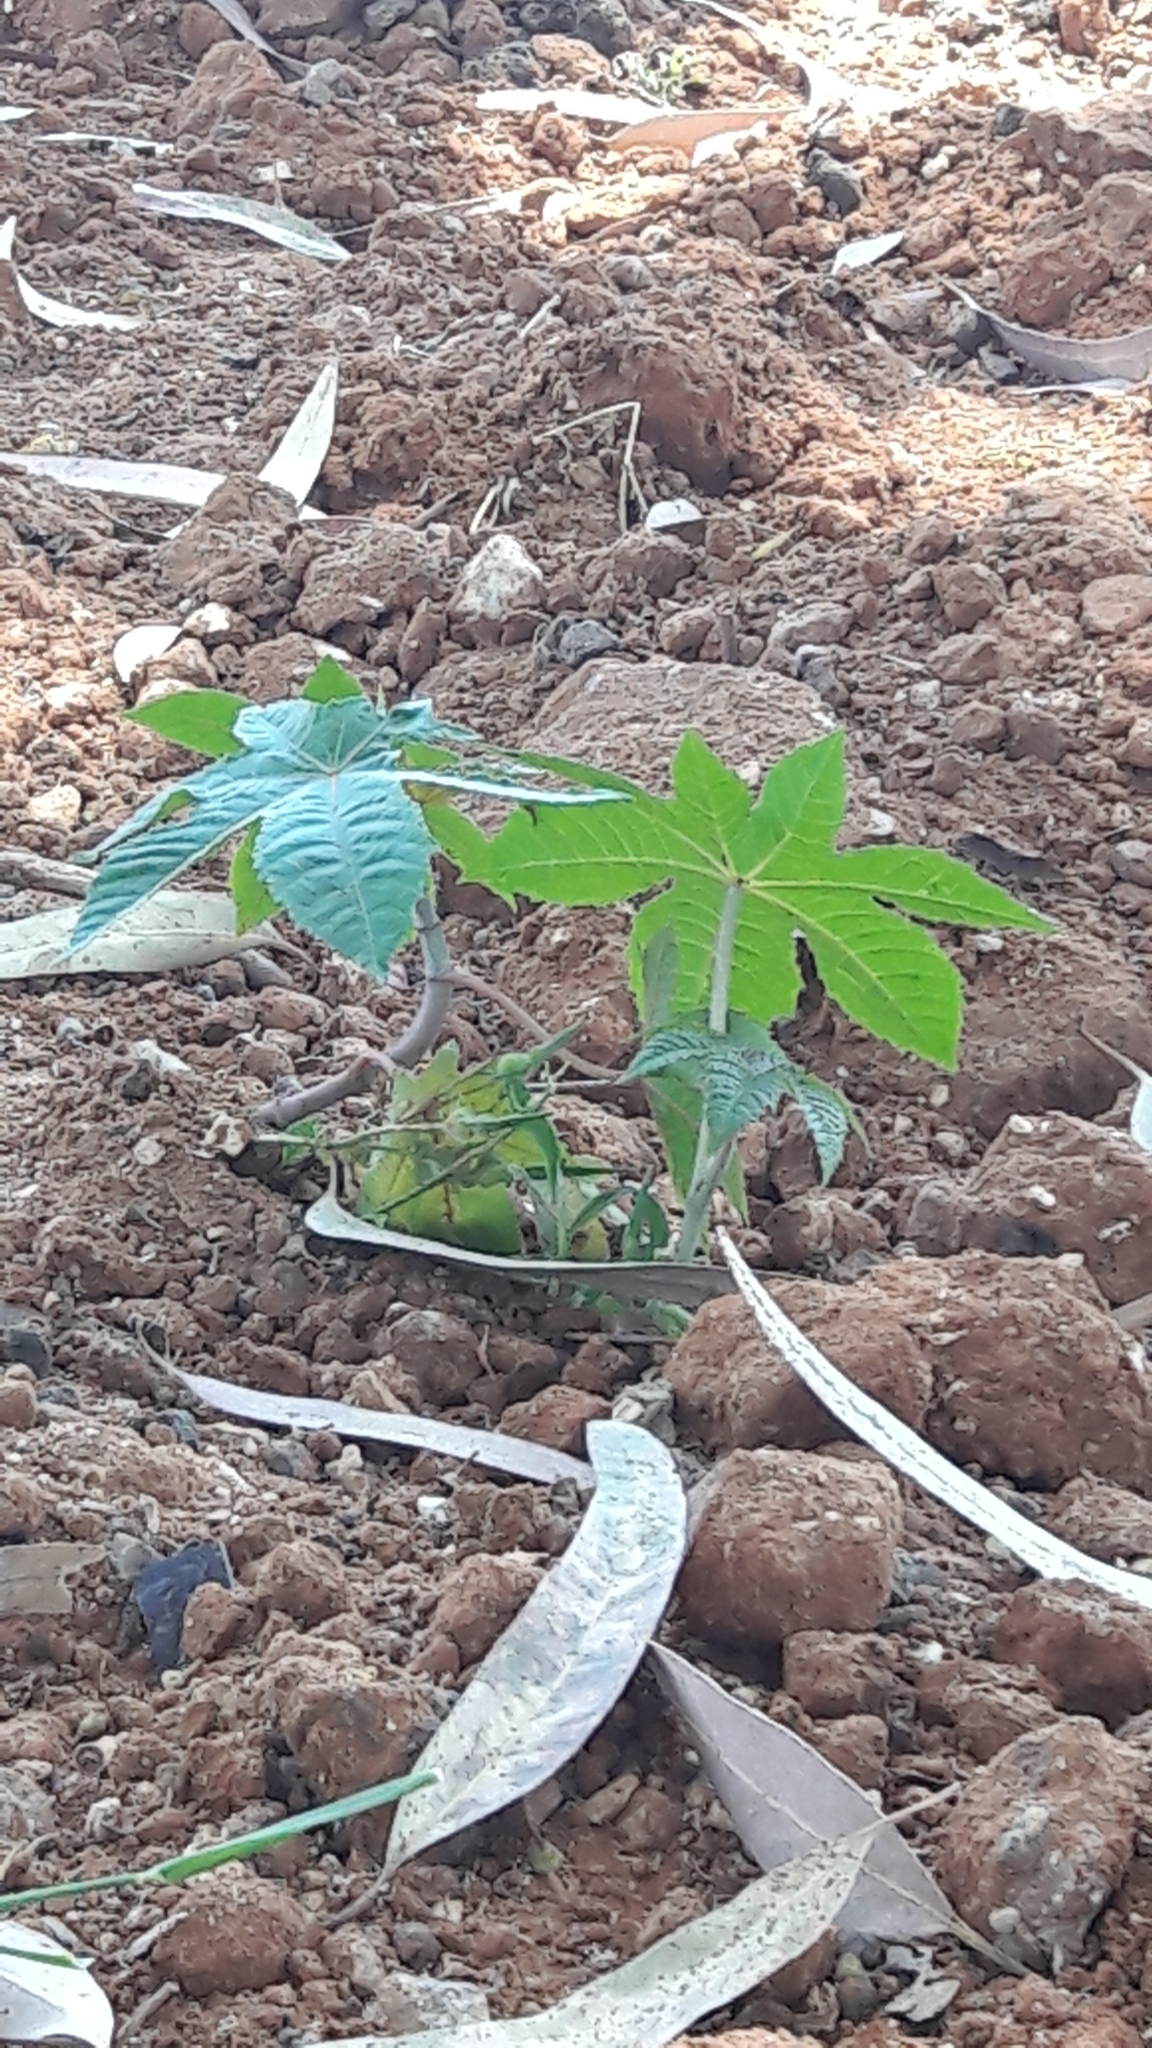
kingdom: Plantae
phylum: Tracheophyta
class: Magnoliopsida
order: Malpighiales
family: Euphorbiaceae
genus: Ricinus
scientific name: Ricinus communis
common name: Castor-oil-plant
